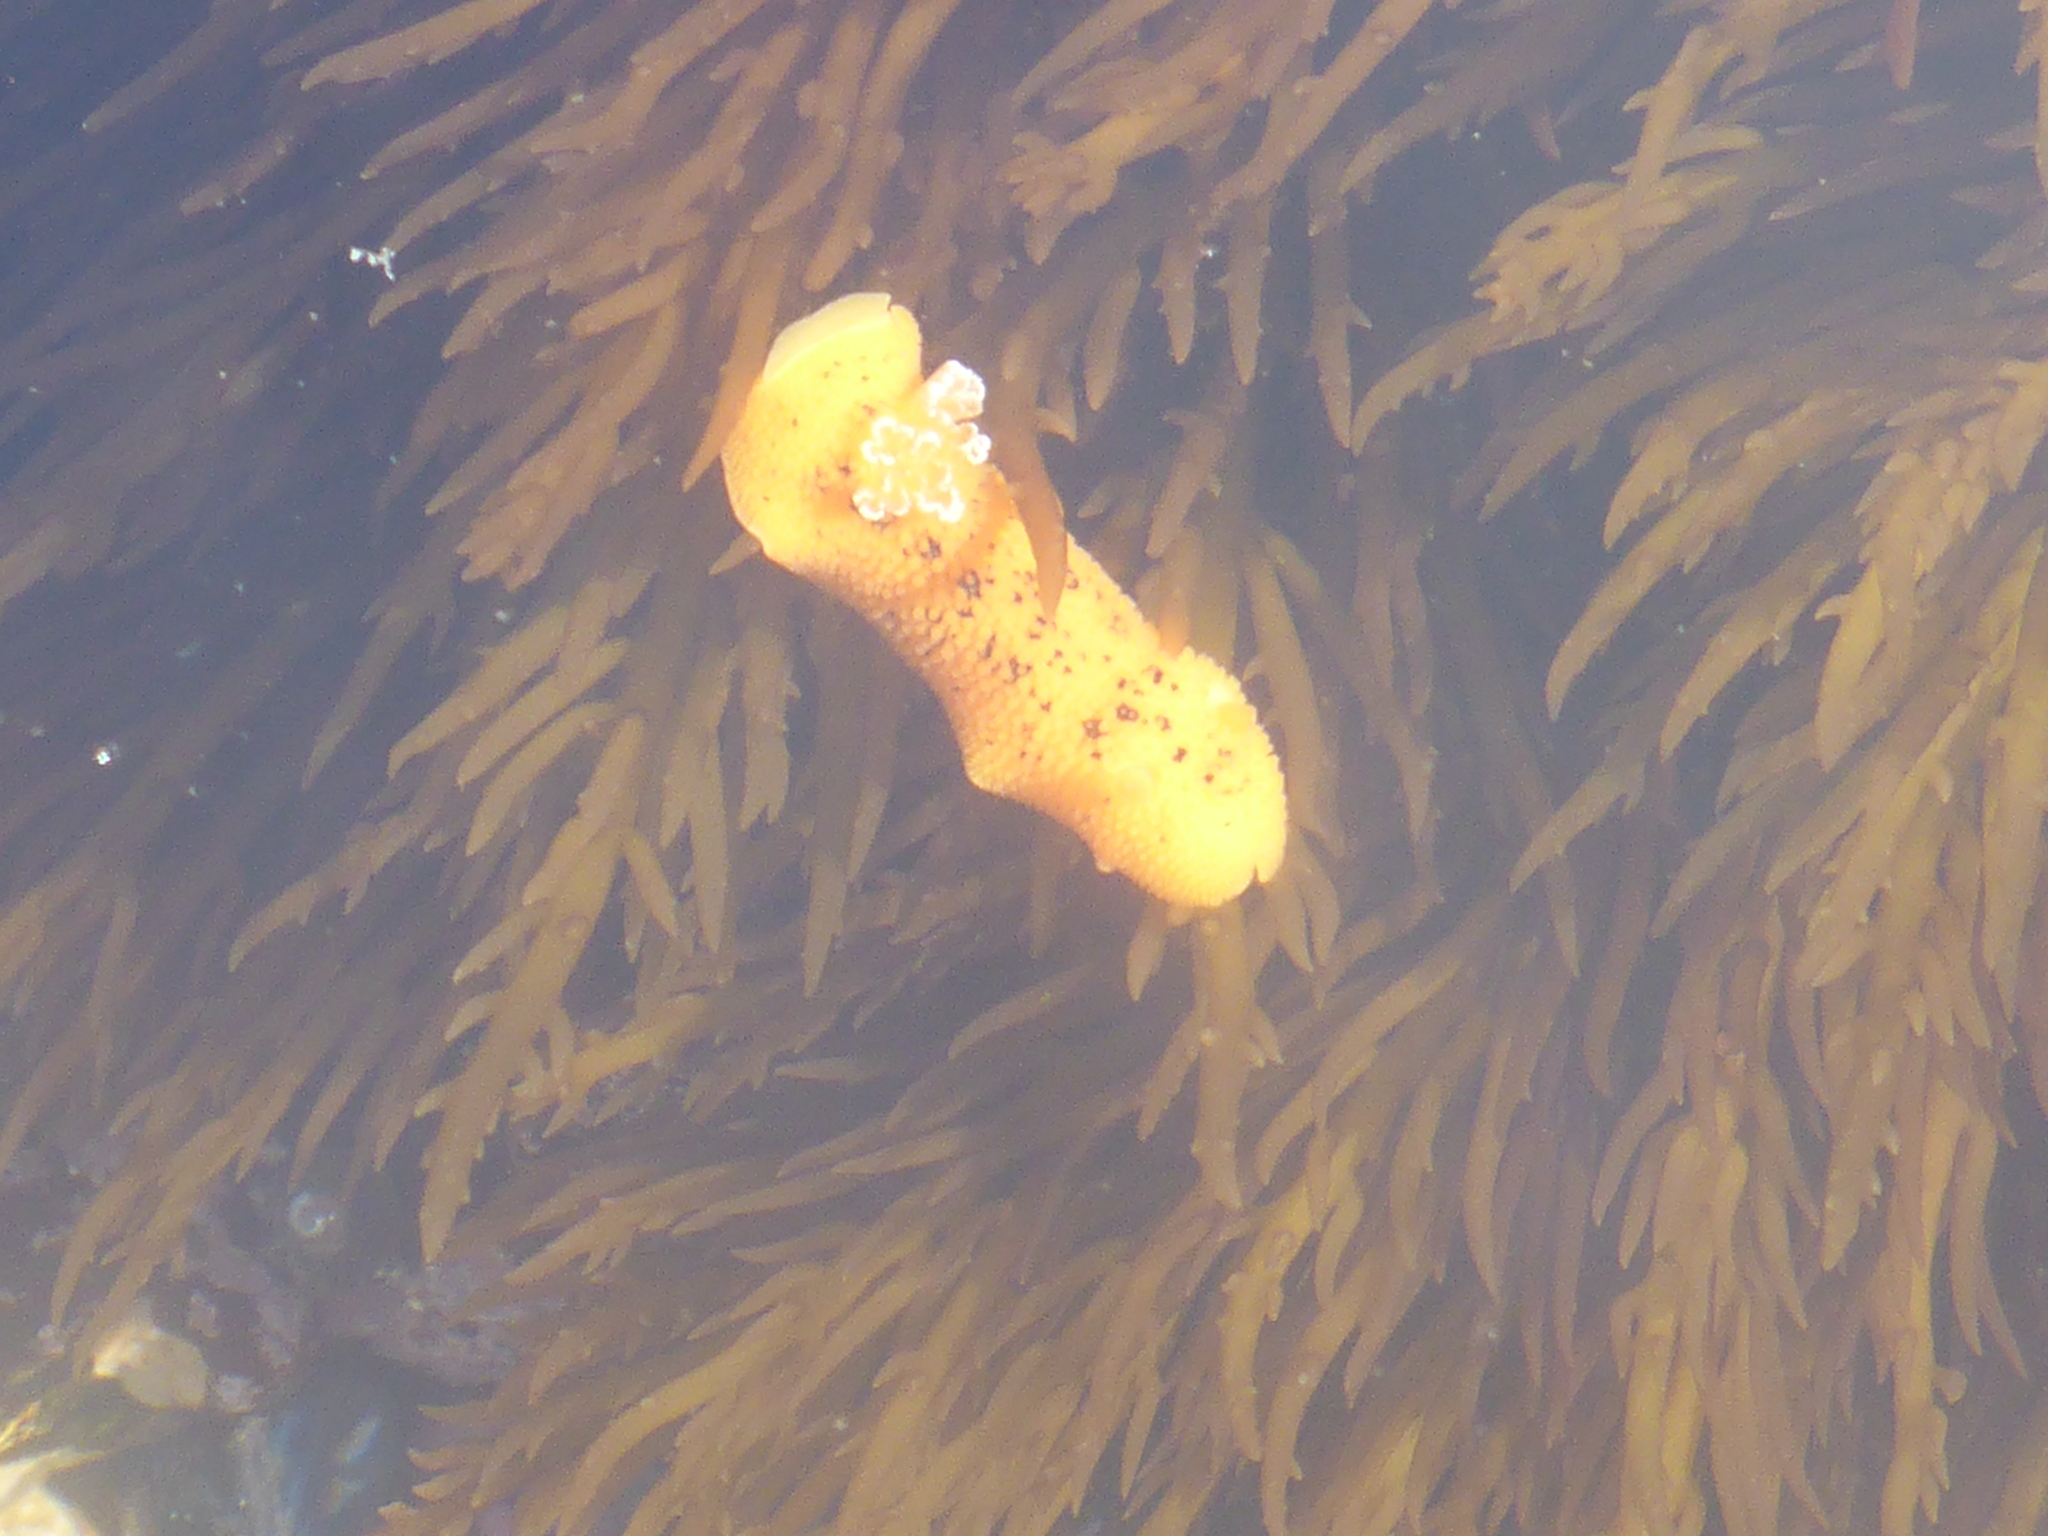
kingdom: Animalia
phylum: Mollusca
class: Gastropoda
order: Nudibranchia
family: Discodorididae
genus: Peltodoris
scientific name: Peltodoris nobilis
